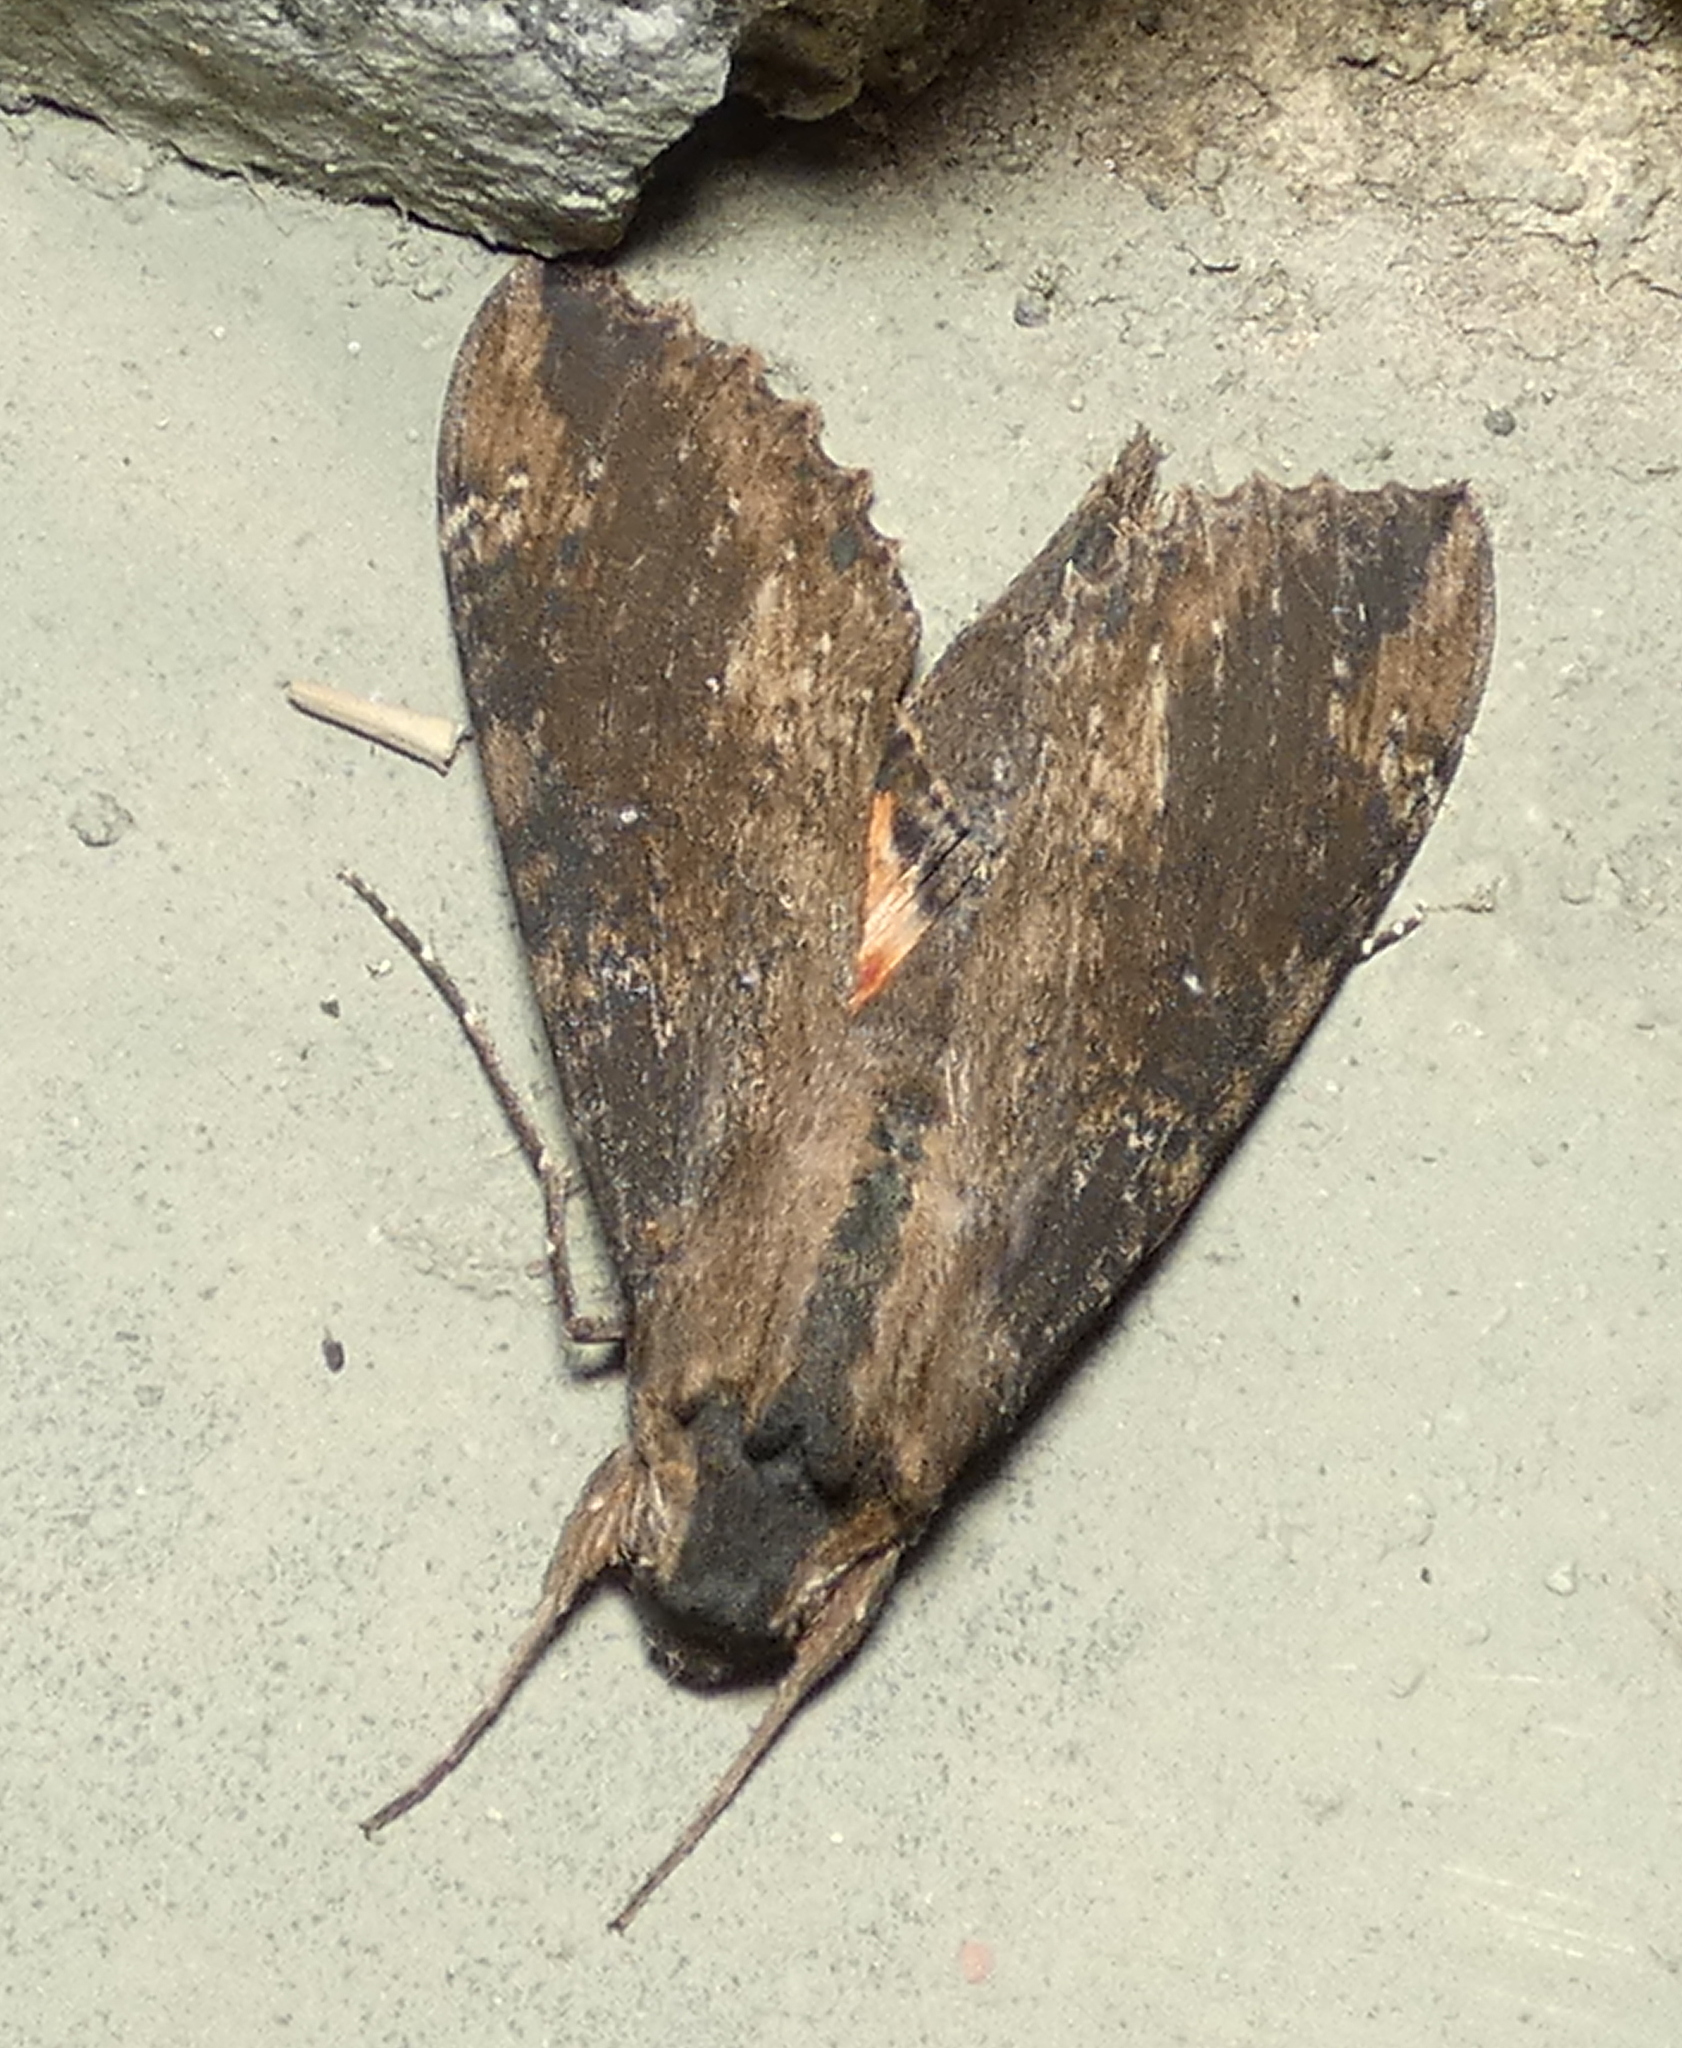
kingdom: Animalia
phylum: Arthropoda
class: Insecta
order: Lepidoptera
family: Sphingidae
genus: Erinnyis
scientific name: Erinnyis crameri
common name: Cramer's sphinx
